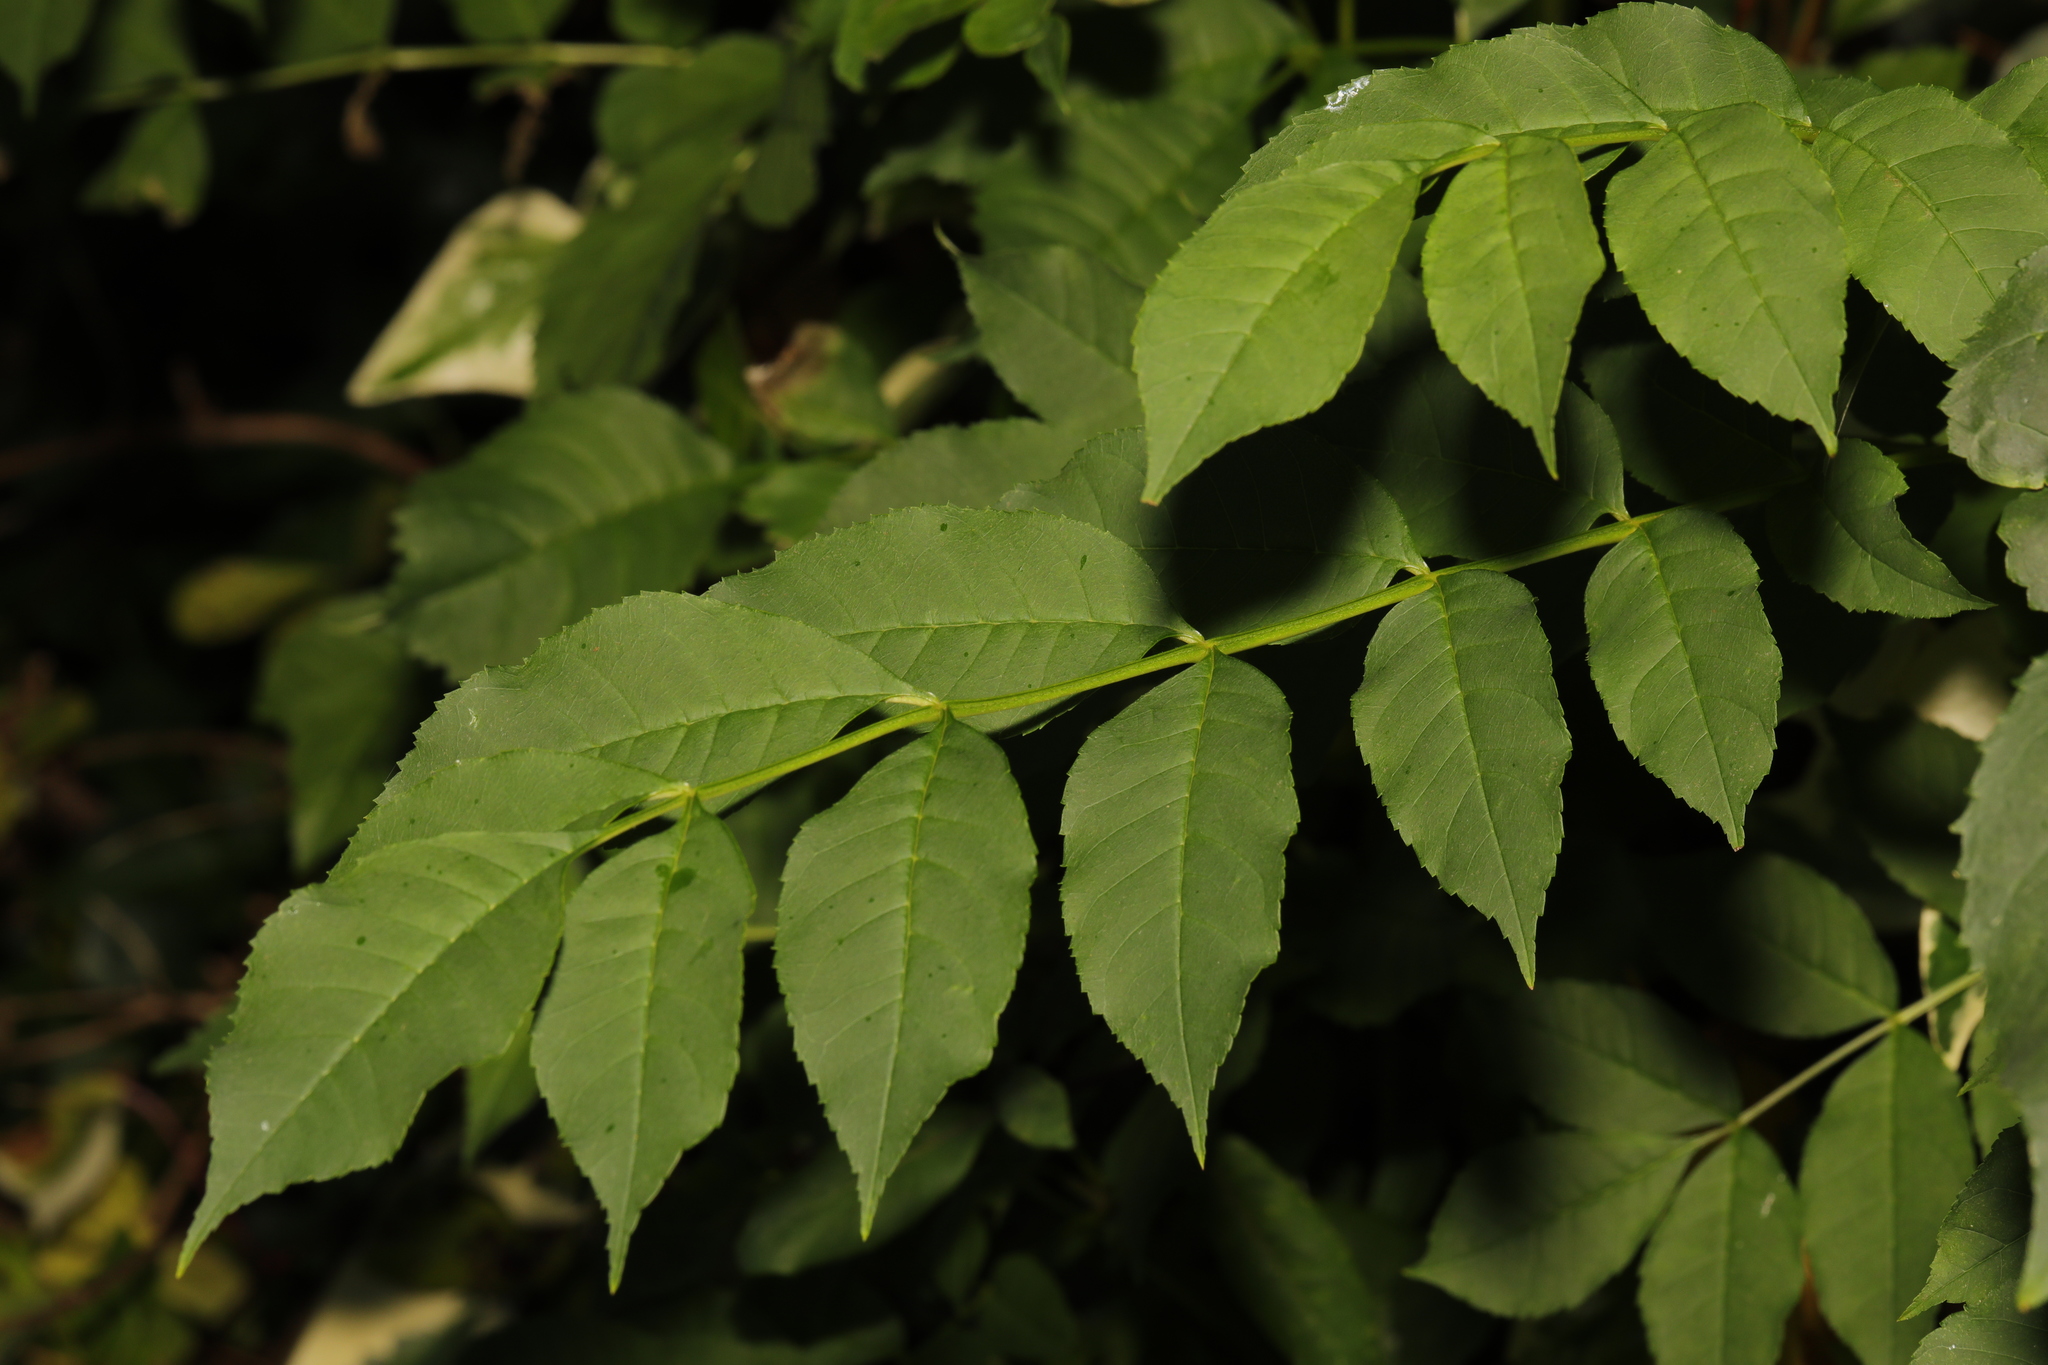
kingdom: Plantae
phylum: Tracheophyta
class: Magnoliopsida
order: Lamiales
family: Oleaceae
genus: Fraxinus
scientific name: Fraxinus excelsior
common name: European ash
